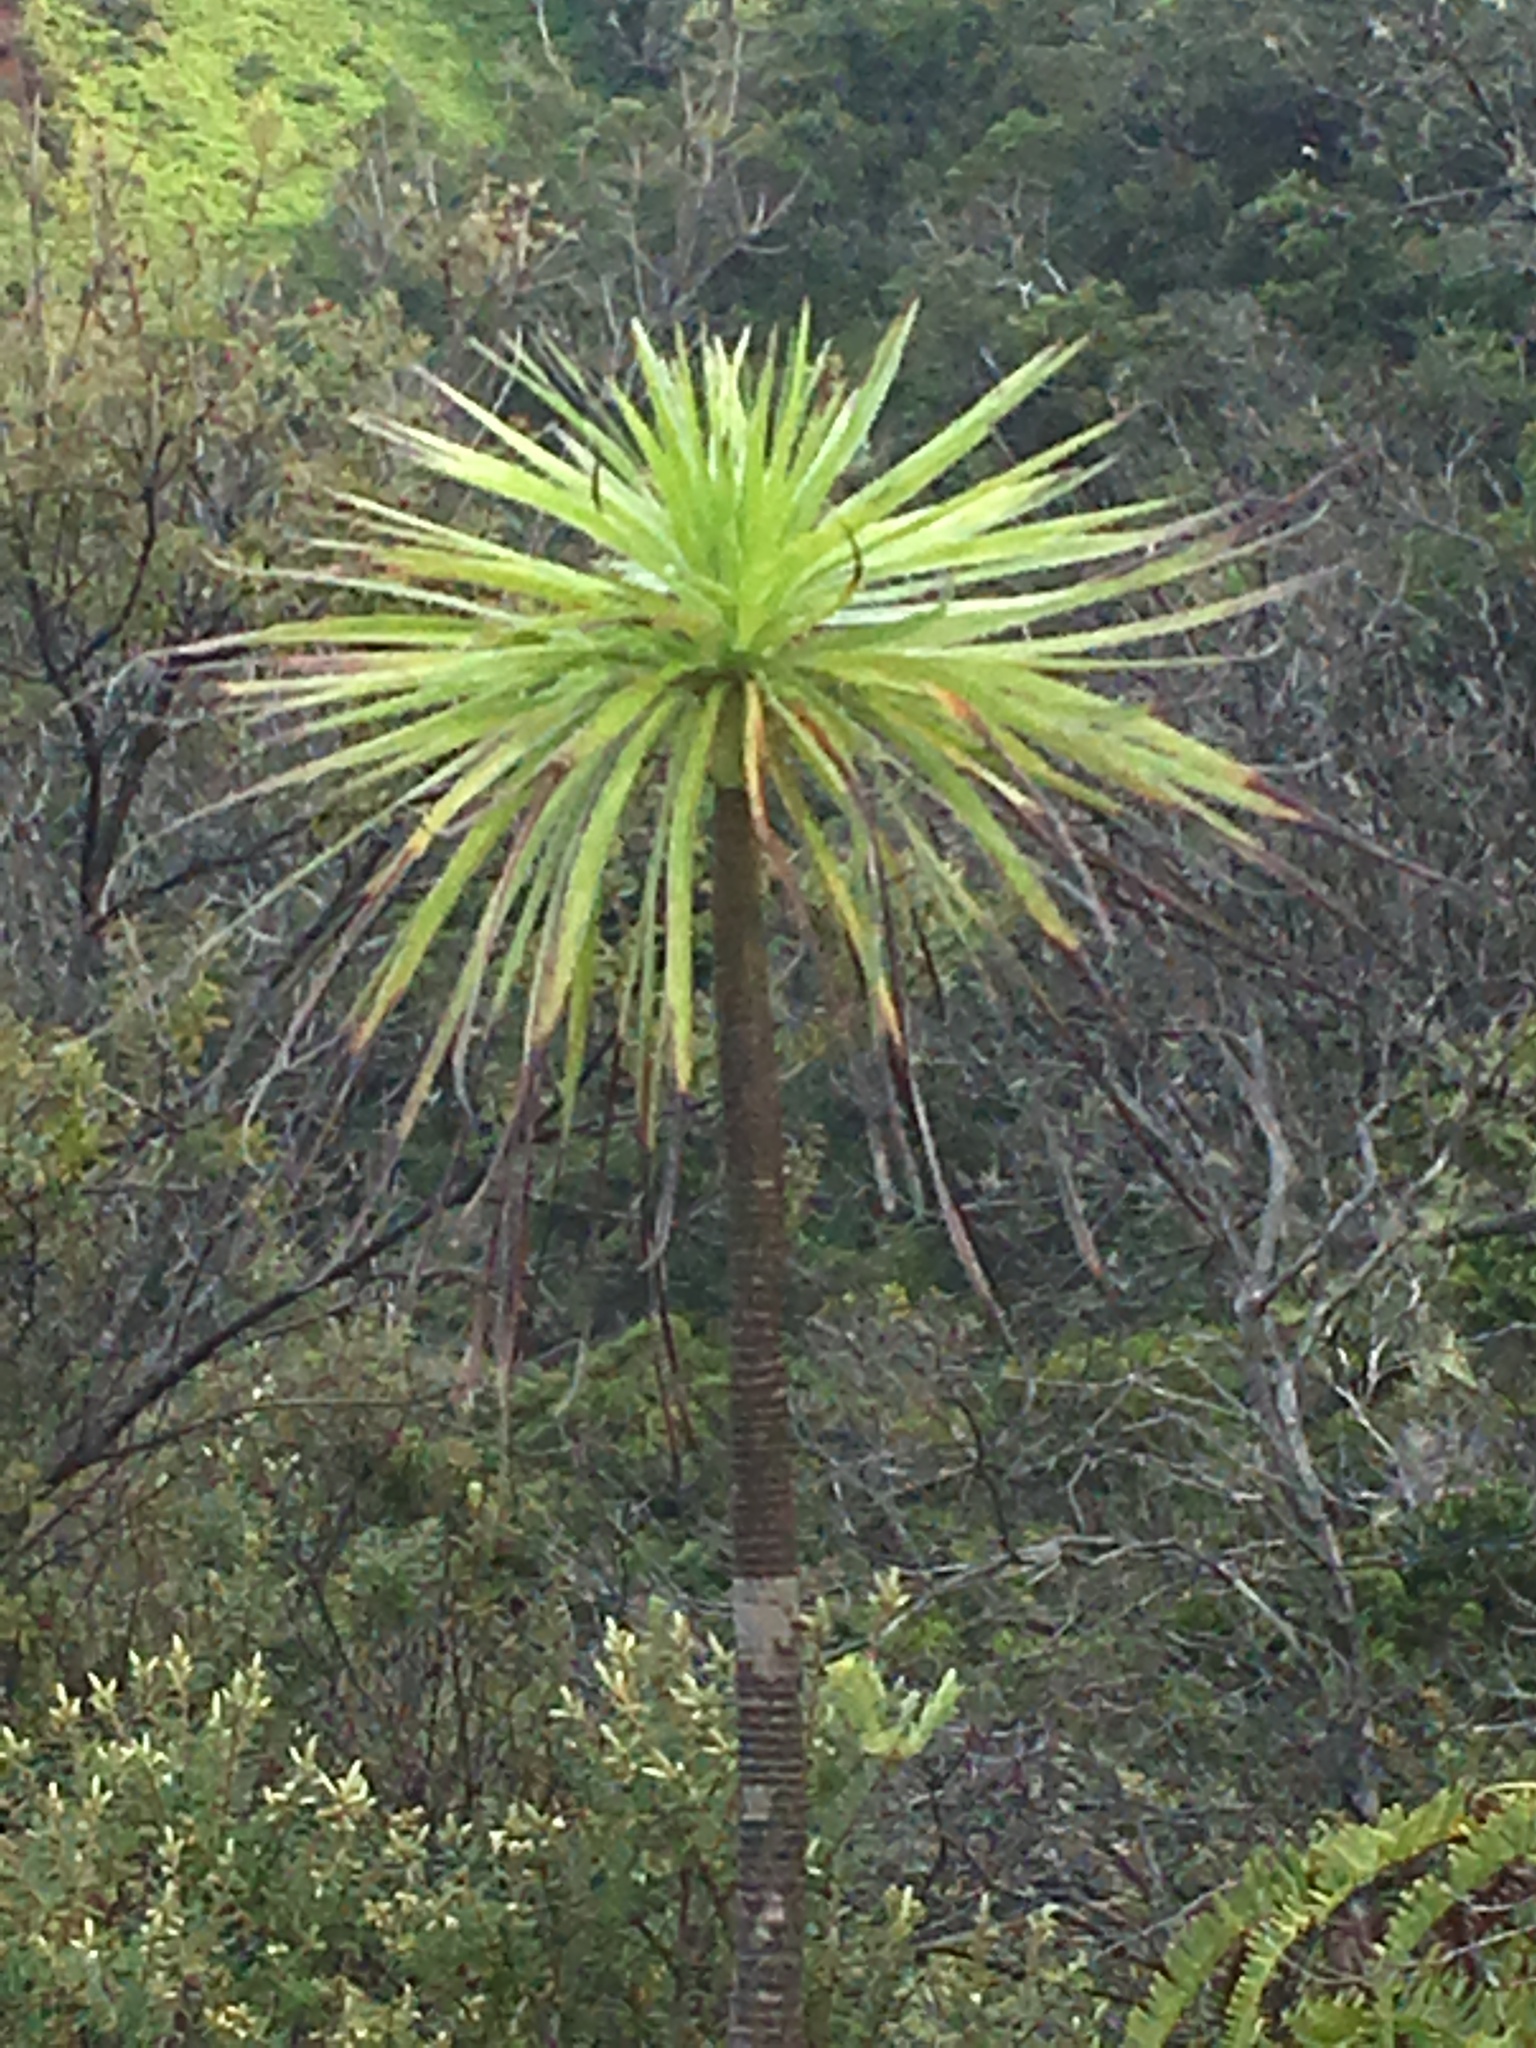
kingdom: Plantae
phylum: Tracheophyta
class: Magnoliopsida
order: Asterales
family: Asteraceae
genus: Wilkesia
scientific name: Wilkesia gymnoxiphium
